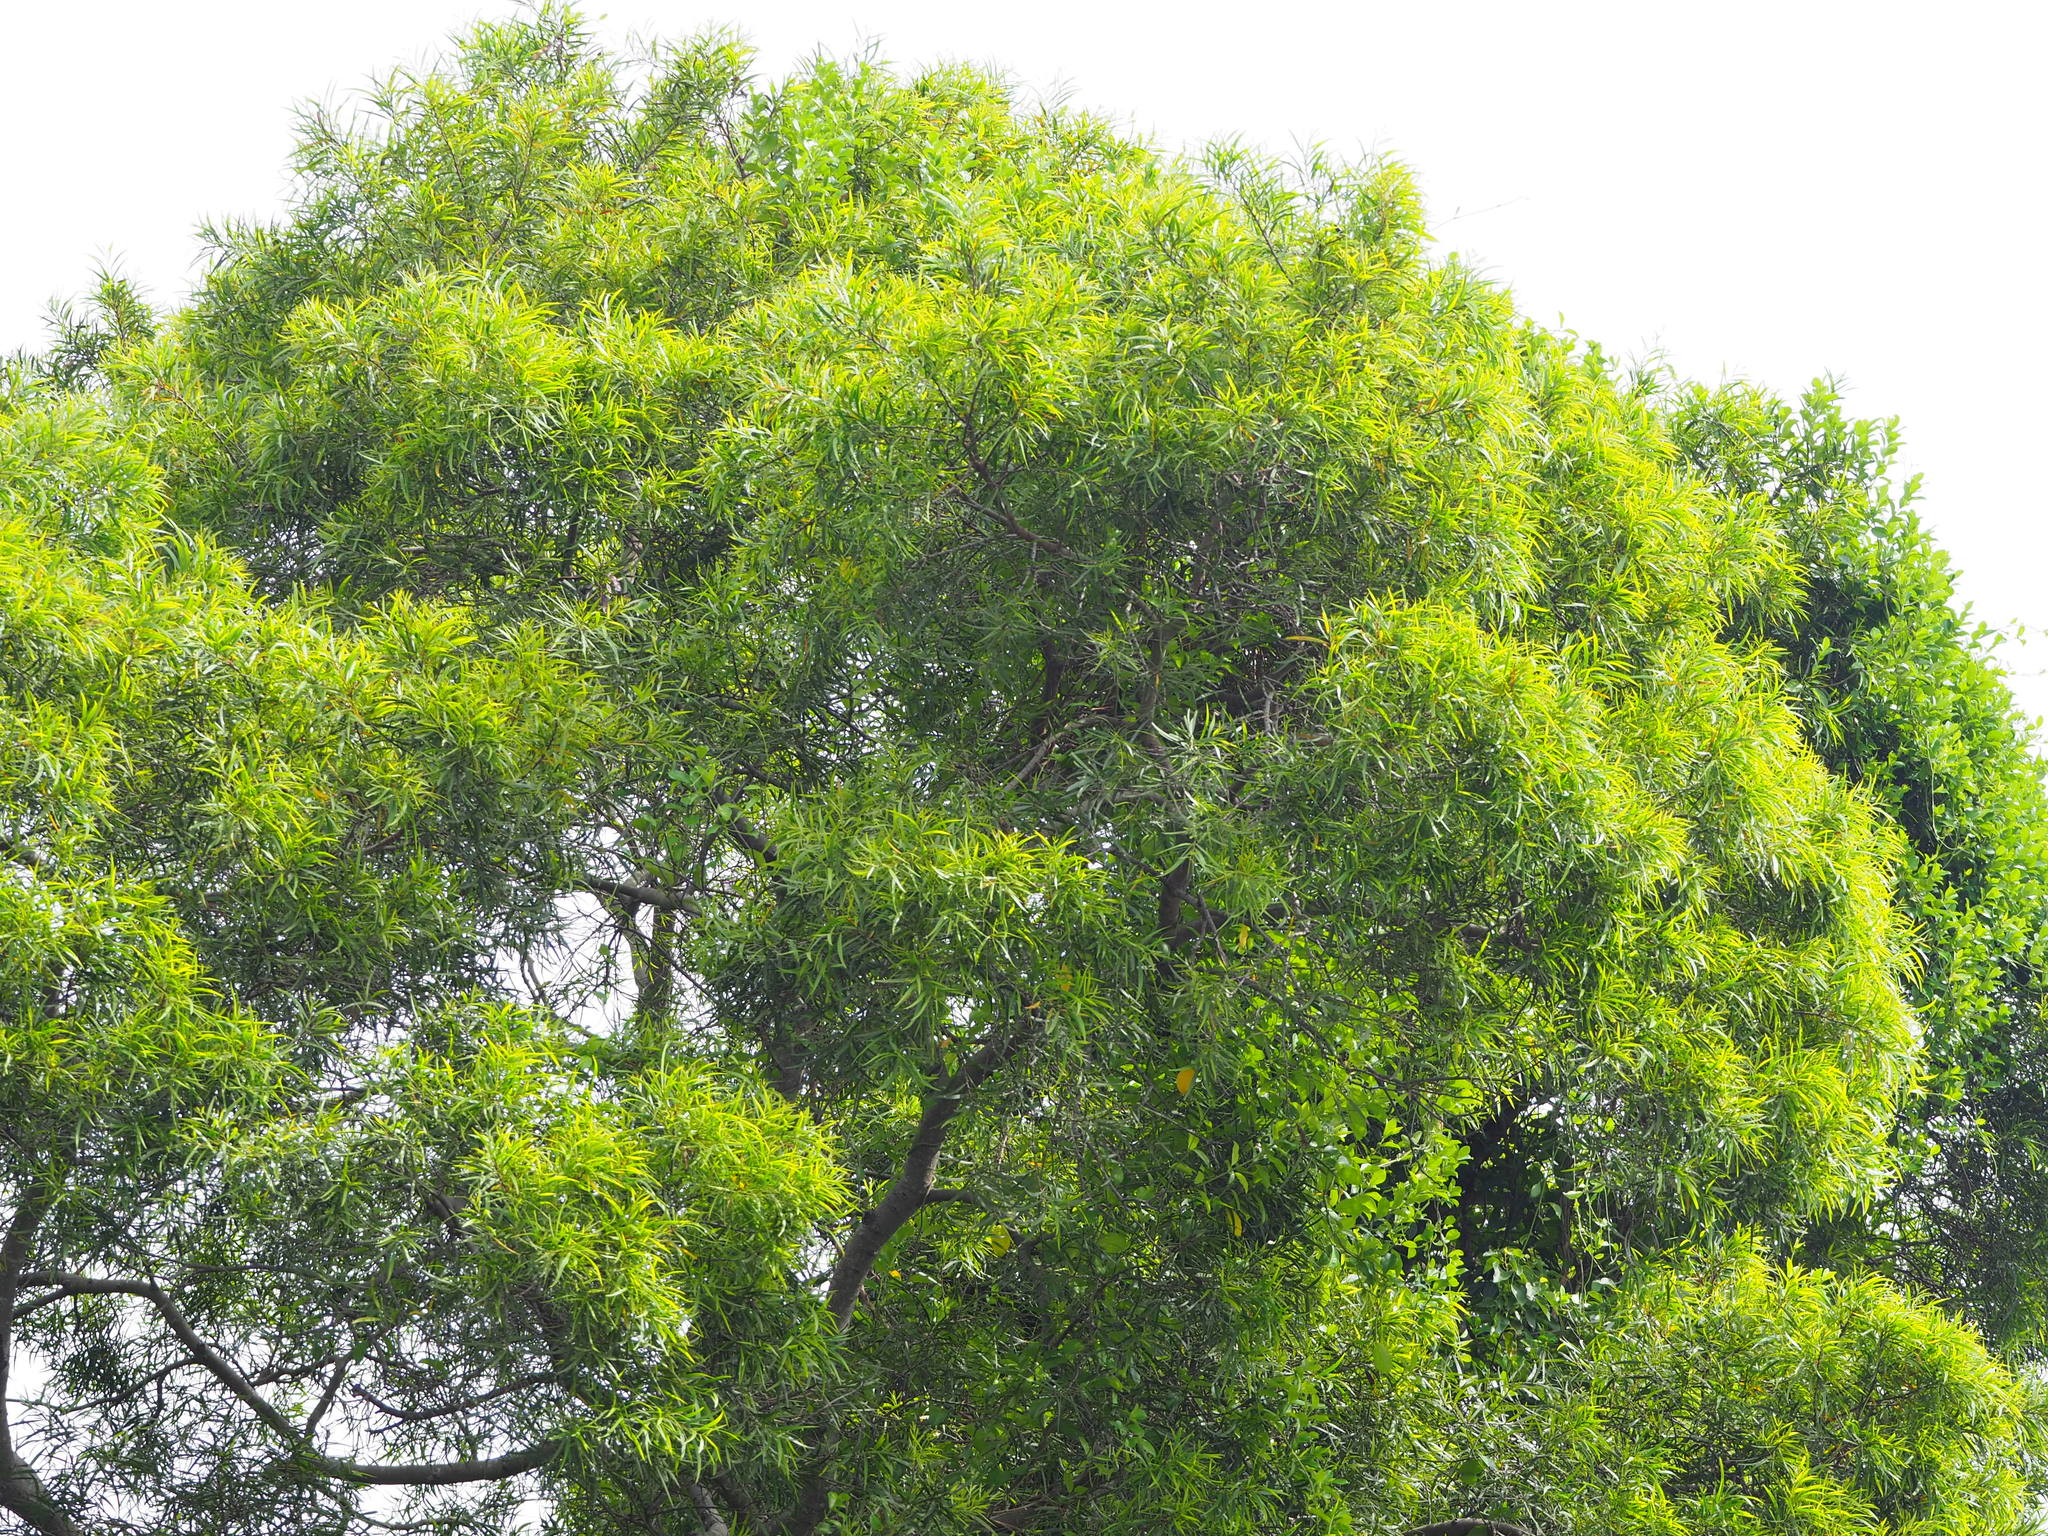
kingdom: Plantae
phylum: Tracheophyta
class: Magnoliopsida
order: Fabales
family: Fabaceae
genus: Acacia
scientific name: Acacia confusa
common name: Formosan koa
